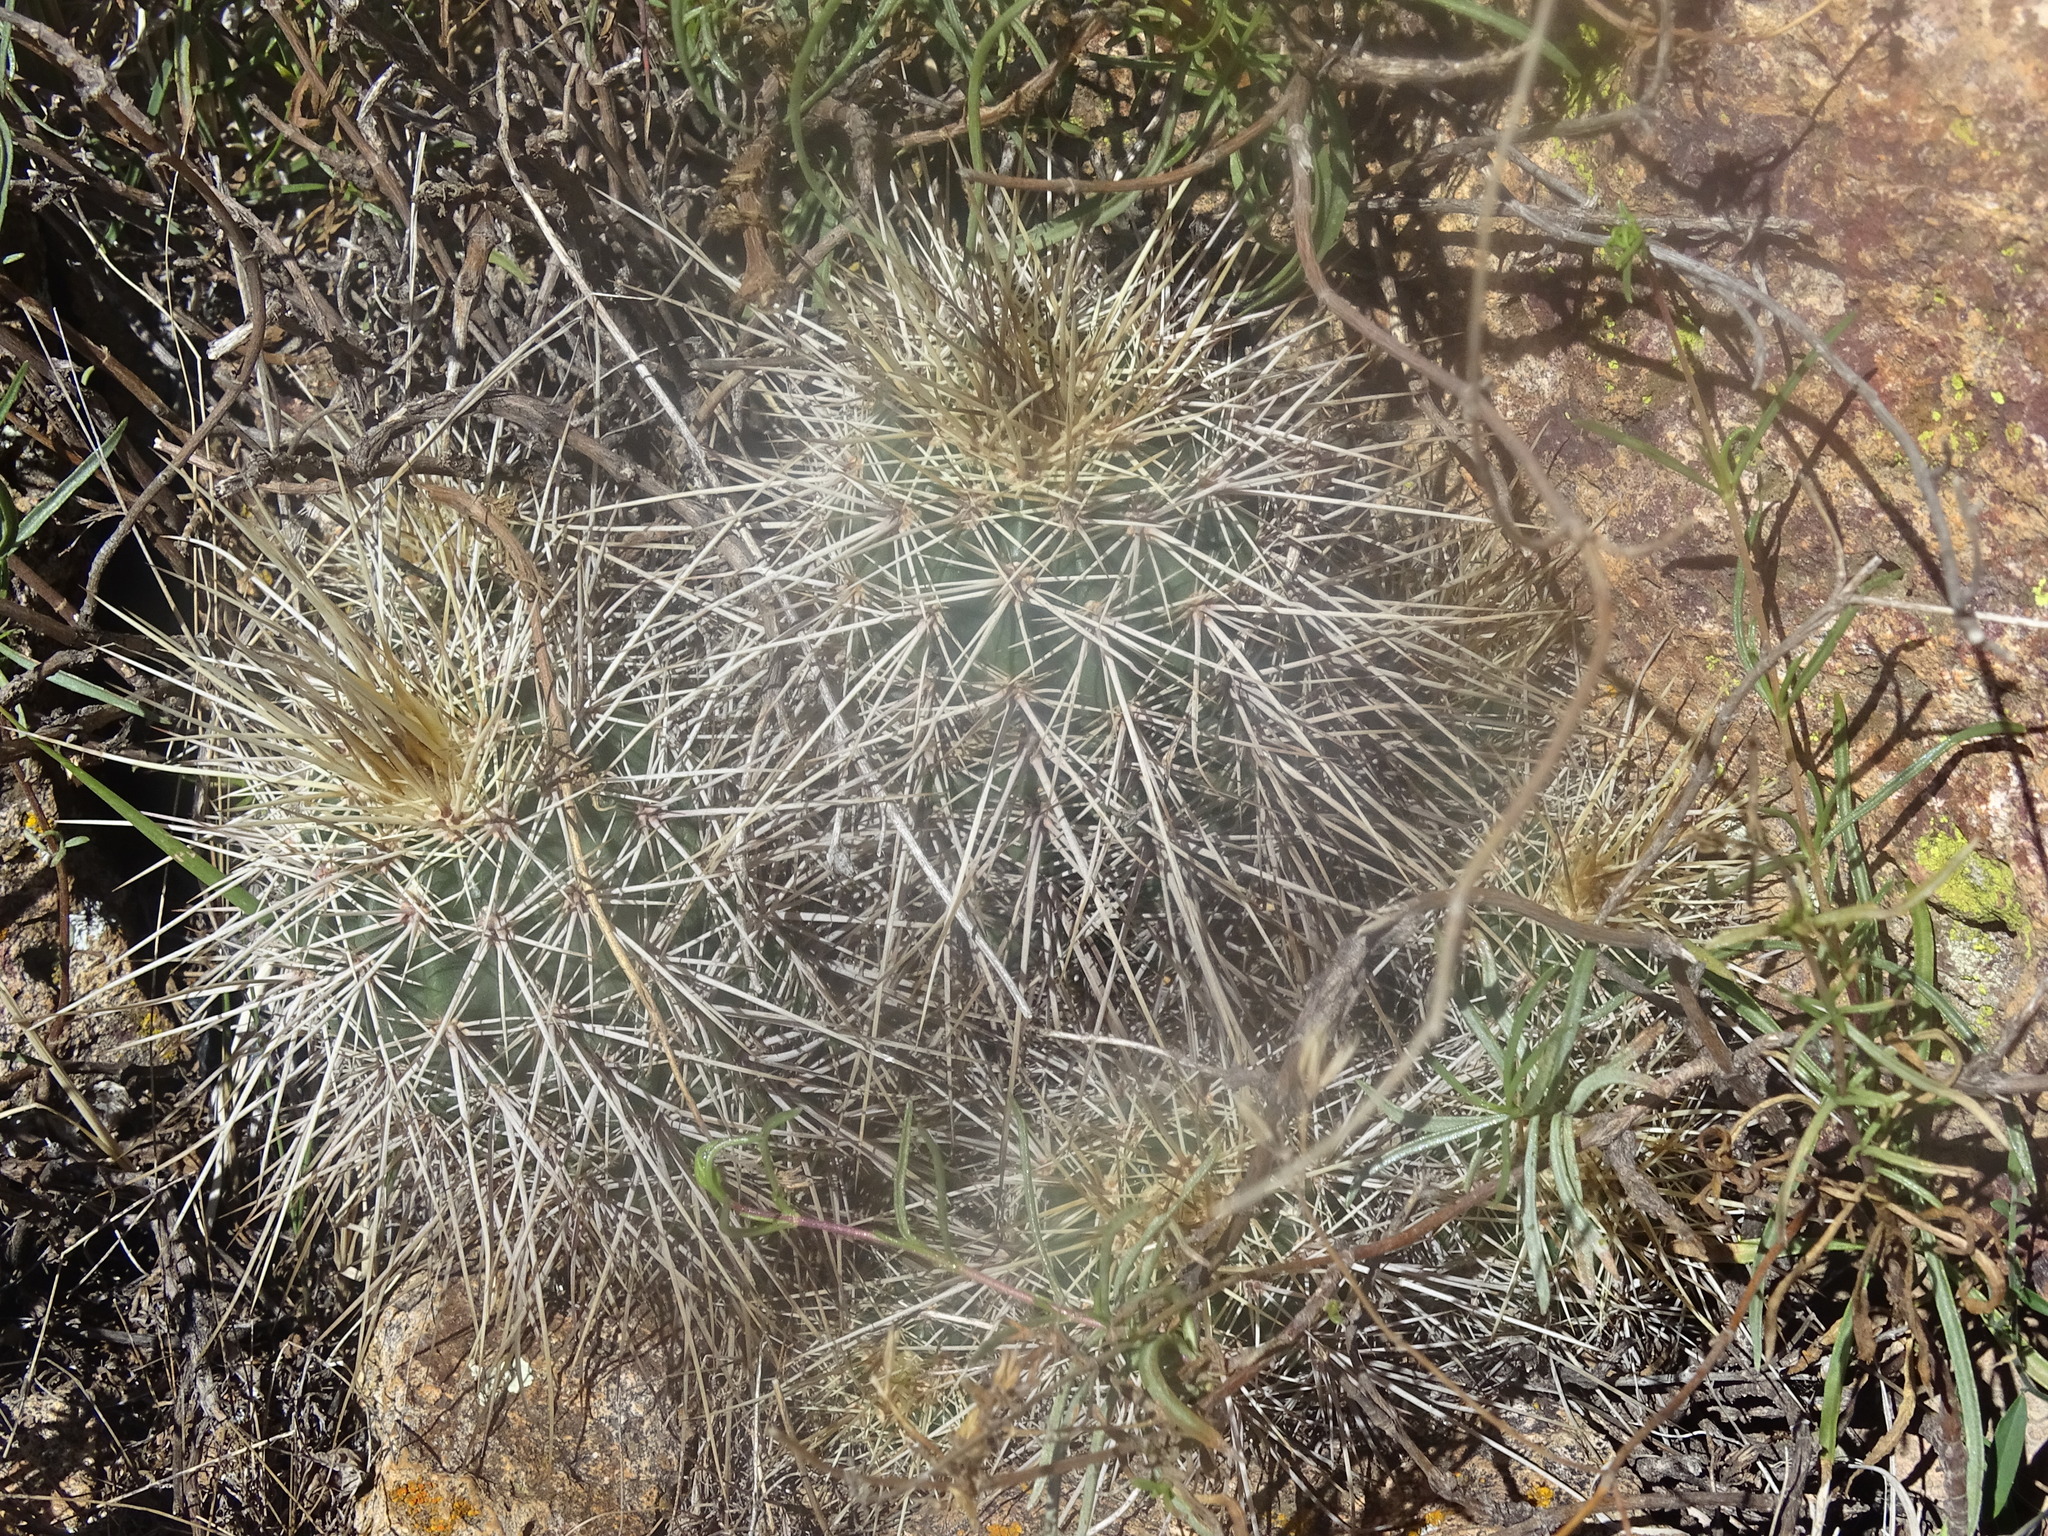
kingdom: Plantae
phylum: Tracheophyta
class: Magnoliopsida
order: Caryophyllales
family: Cactaceae
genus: Echinocereus
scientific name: Echinocereus acifer
